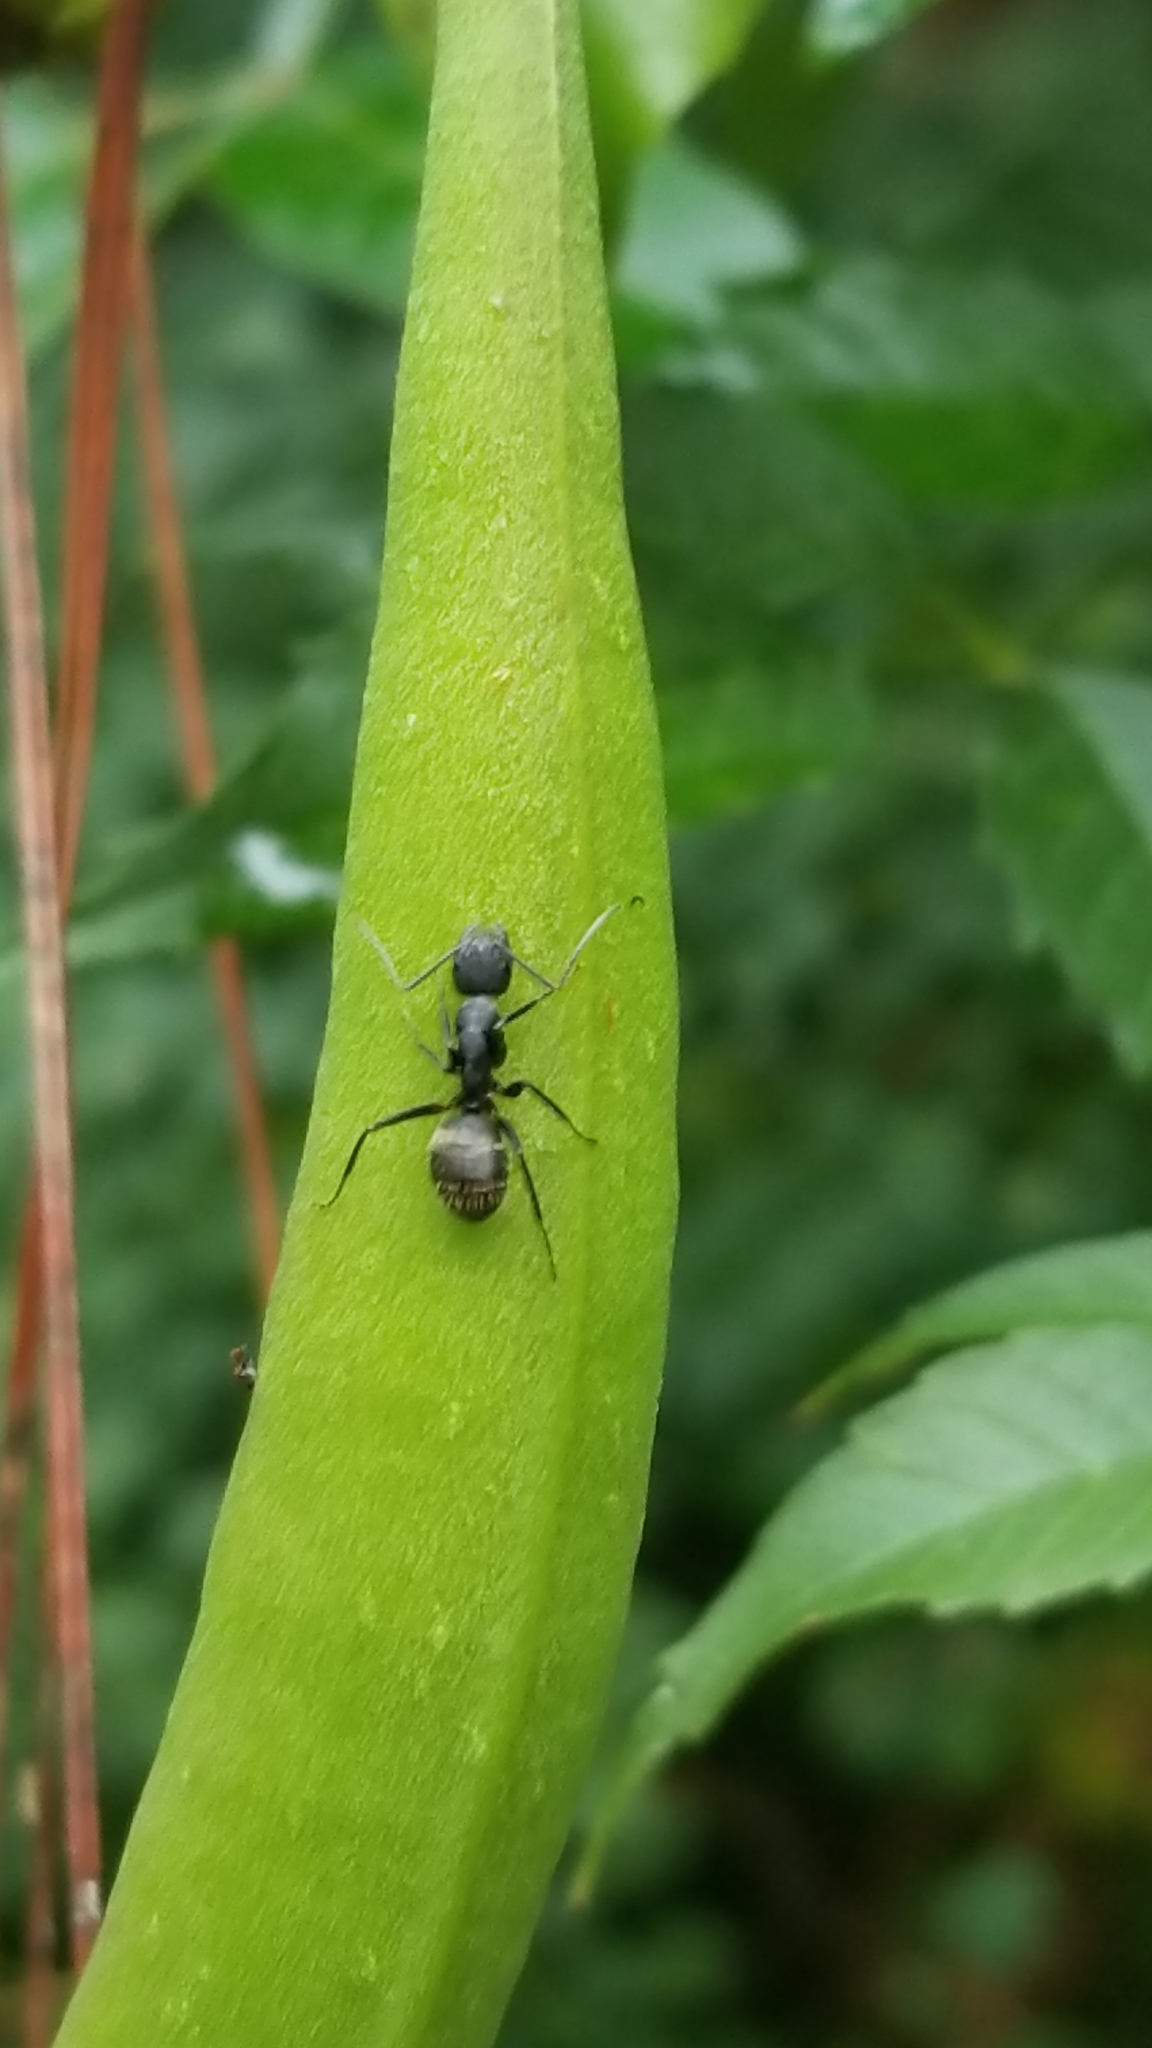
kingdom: Animalia
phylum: Arthropoda
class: Insecta
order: Hymenoptera
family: Formicidae
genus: Camponotus
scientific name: Camponotus pennsylvanicus
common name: Black carpenter ant
